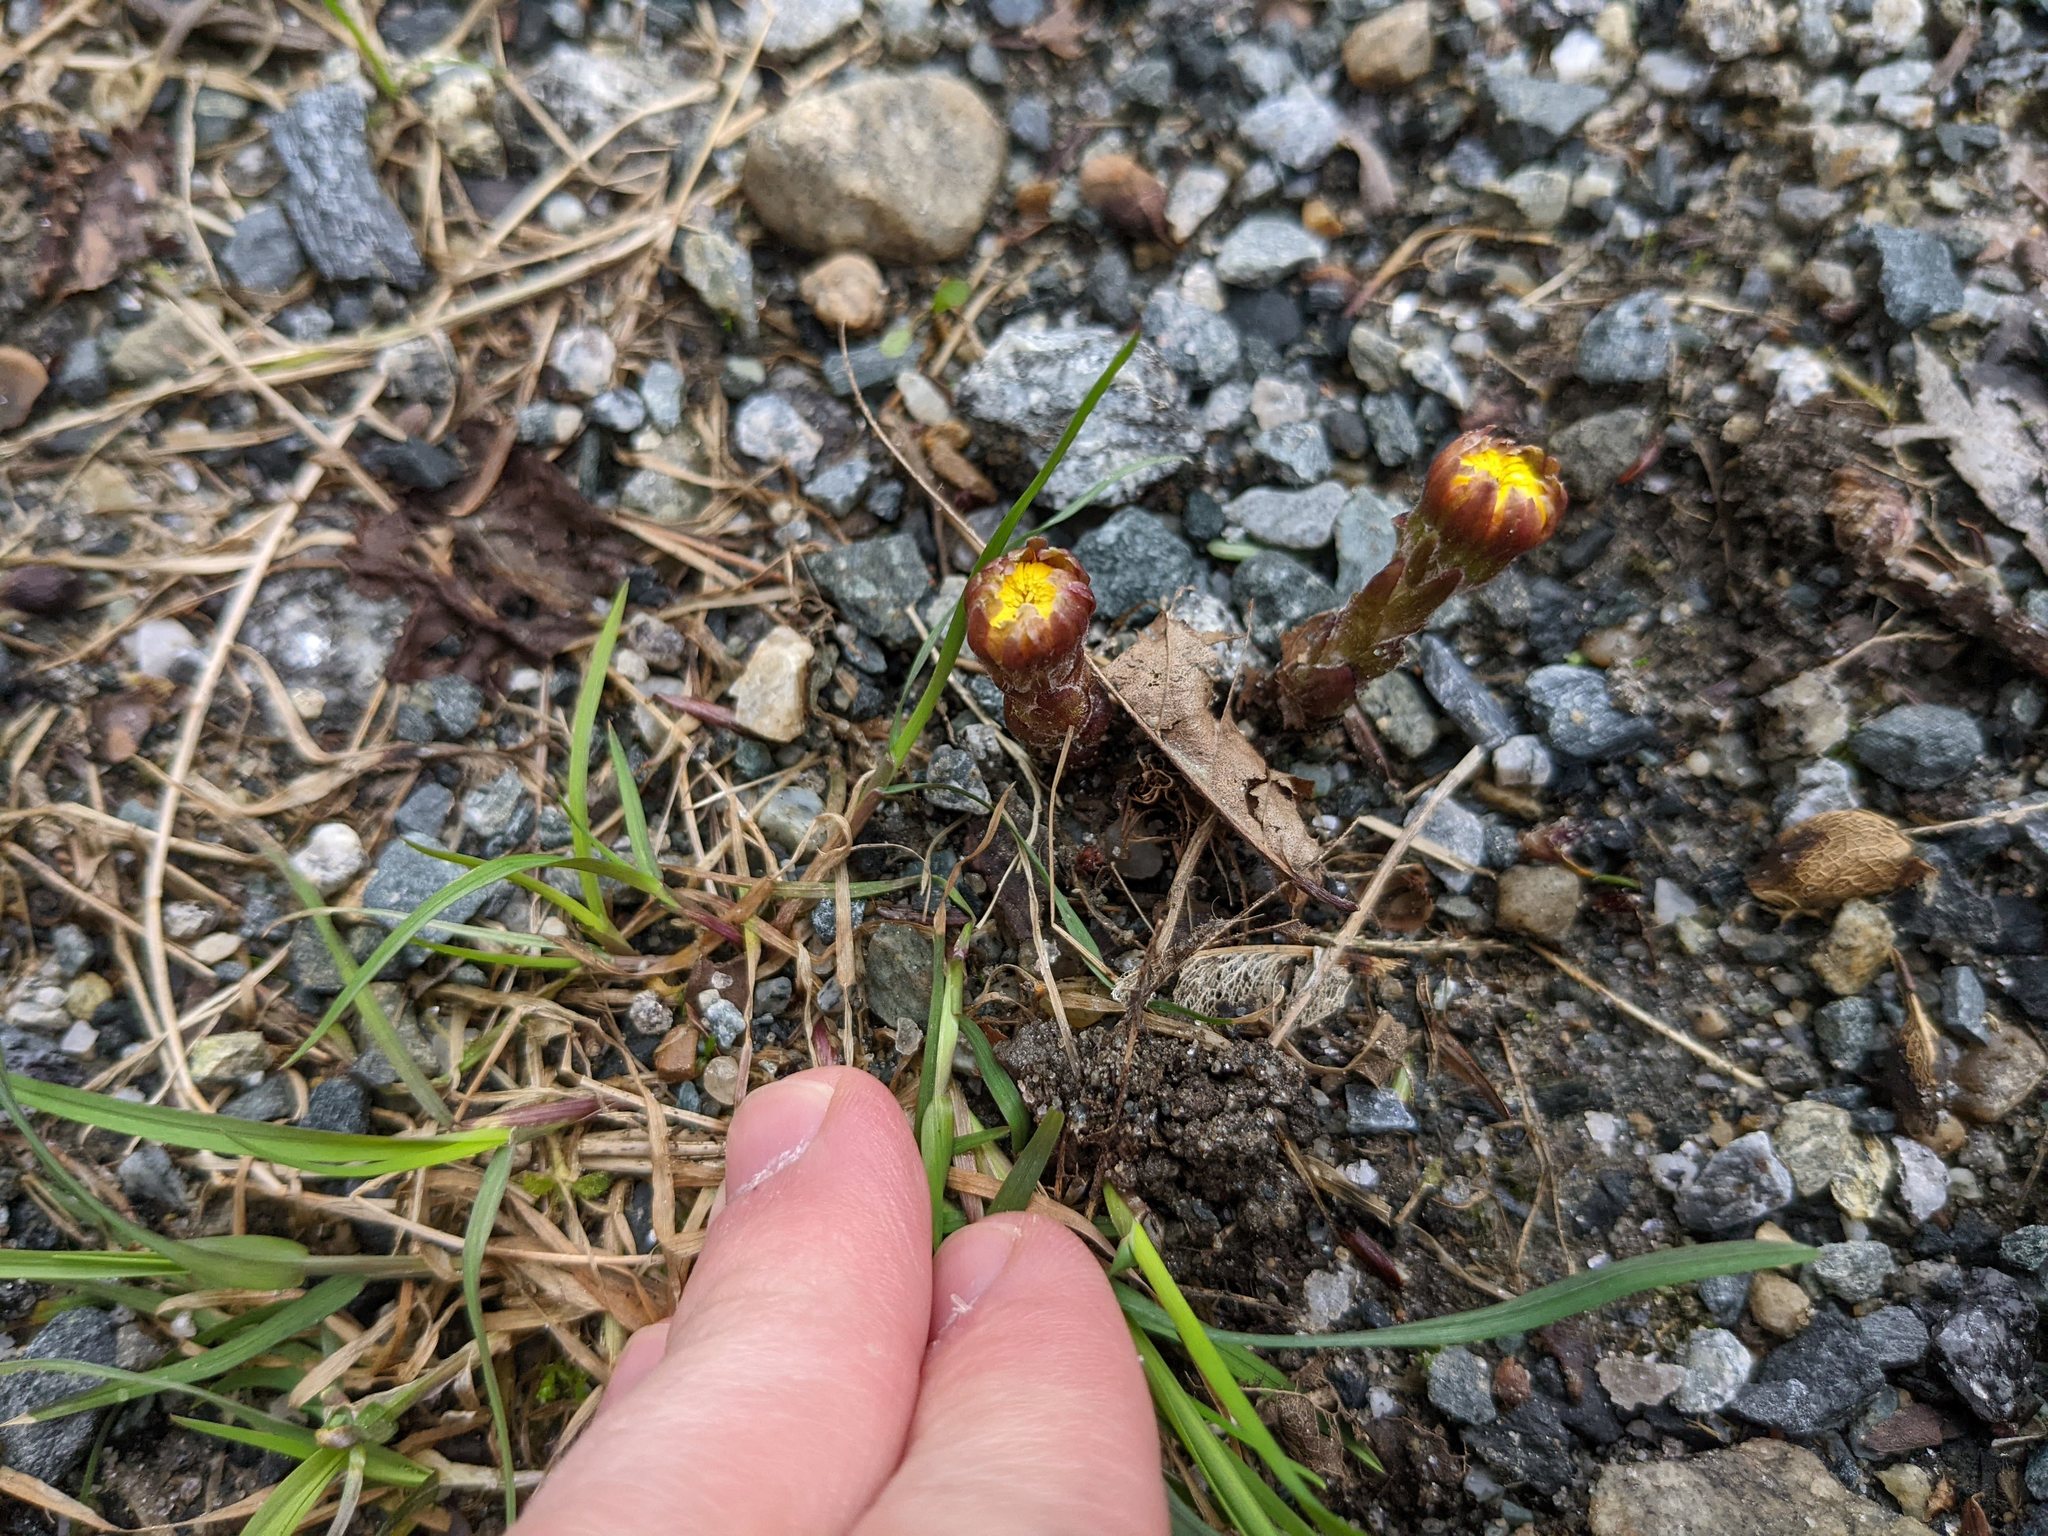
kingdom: Plantae
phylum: Tracheophyta
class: Magnoliopsida
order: Asterales
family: Asteraceae
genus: Tussilago
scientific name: Tussilago farfara
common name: Coltsfoot
